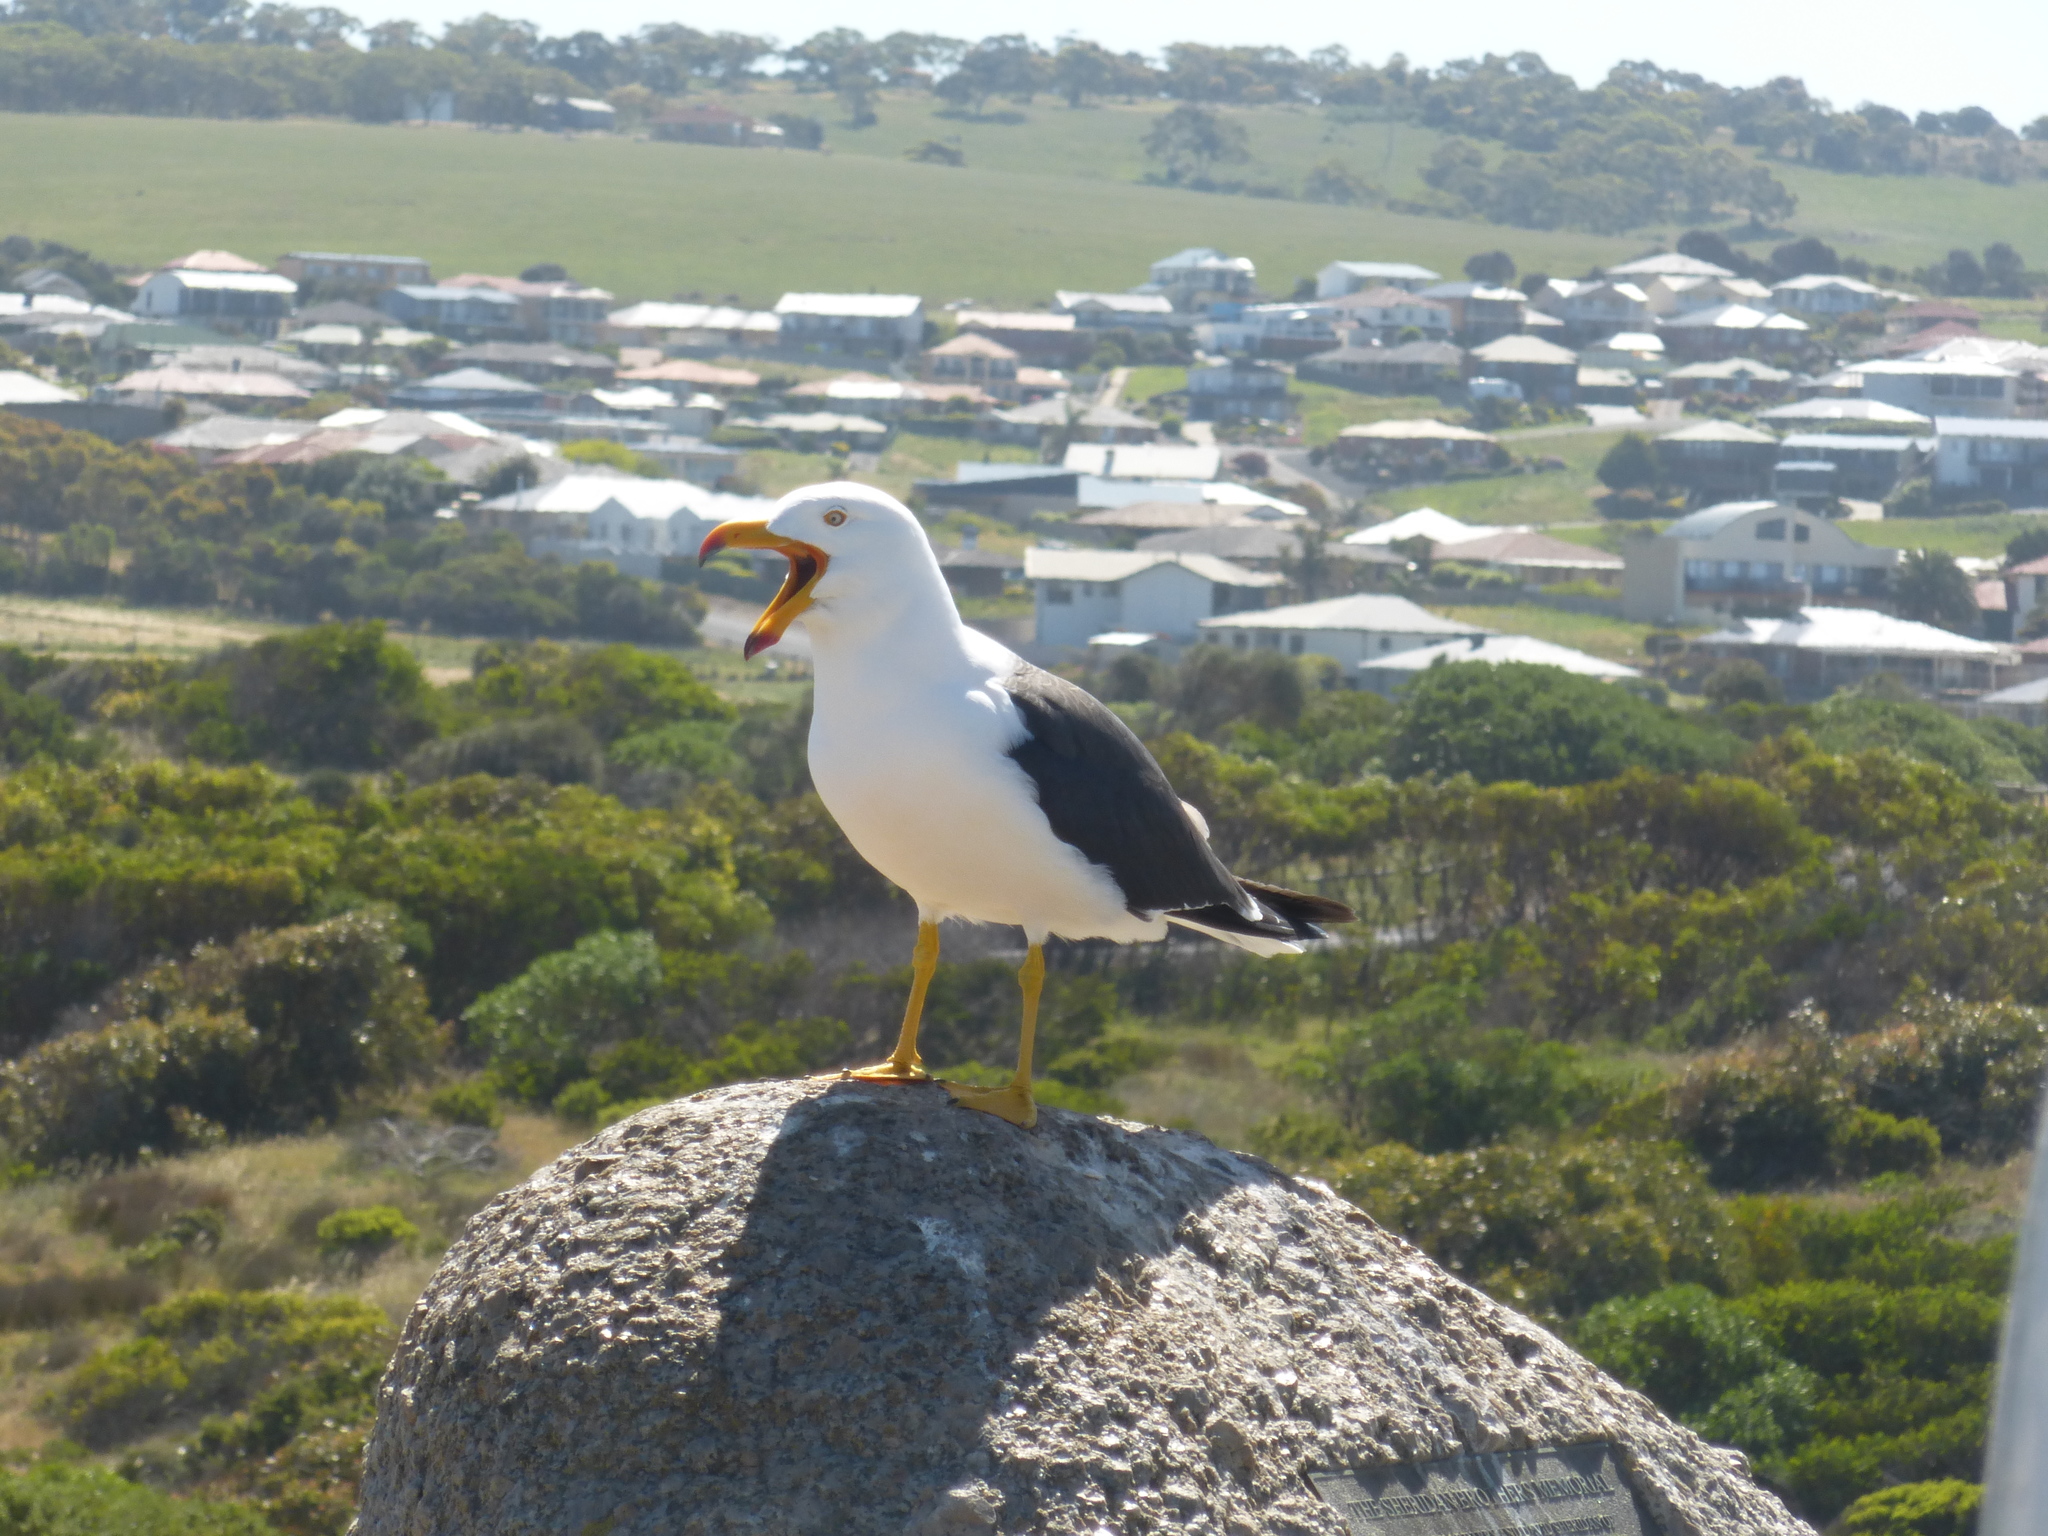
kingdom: Animalia
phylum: Chordata
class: Aves
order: Charadriiformes
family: Laridae
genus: Larus
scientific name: Larus pacificus
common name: Pacific gull
